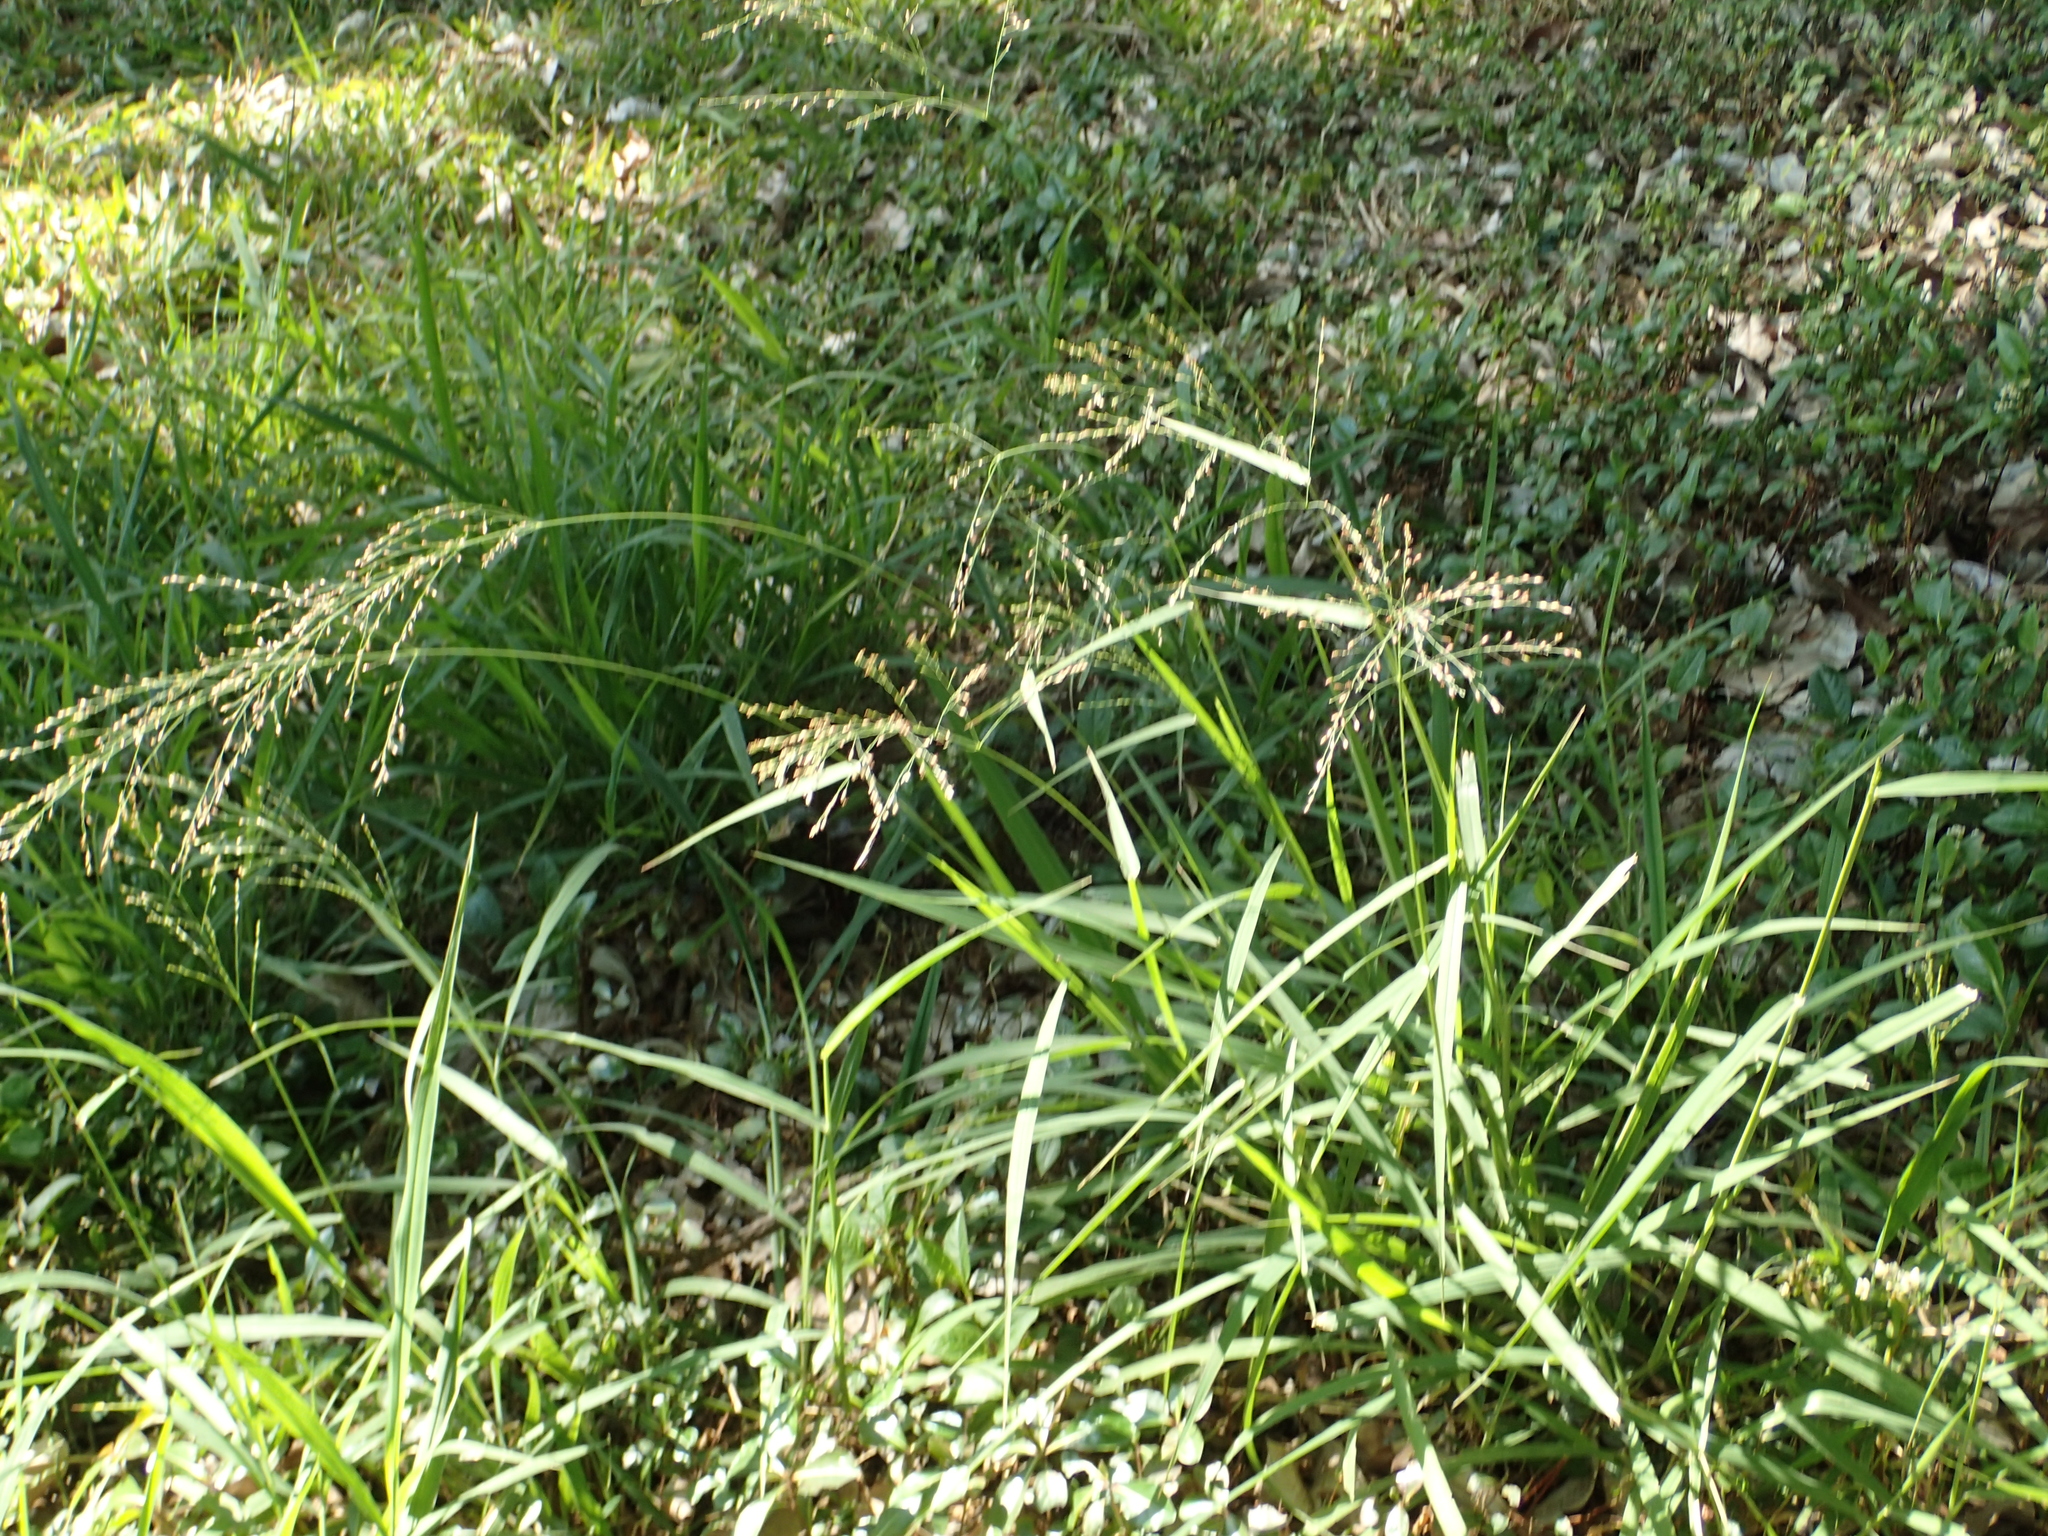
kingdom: Plantae
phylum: Tracheophyta
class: Liliopsida
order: Poales
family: Poaceae
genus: Megathyrsus
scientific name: Megathyrsus maximus
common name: Guineagrass
